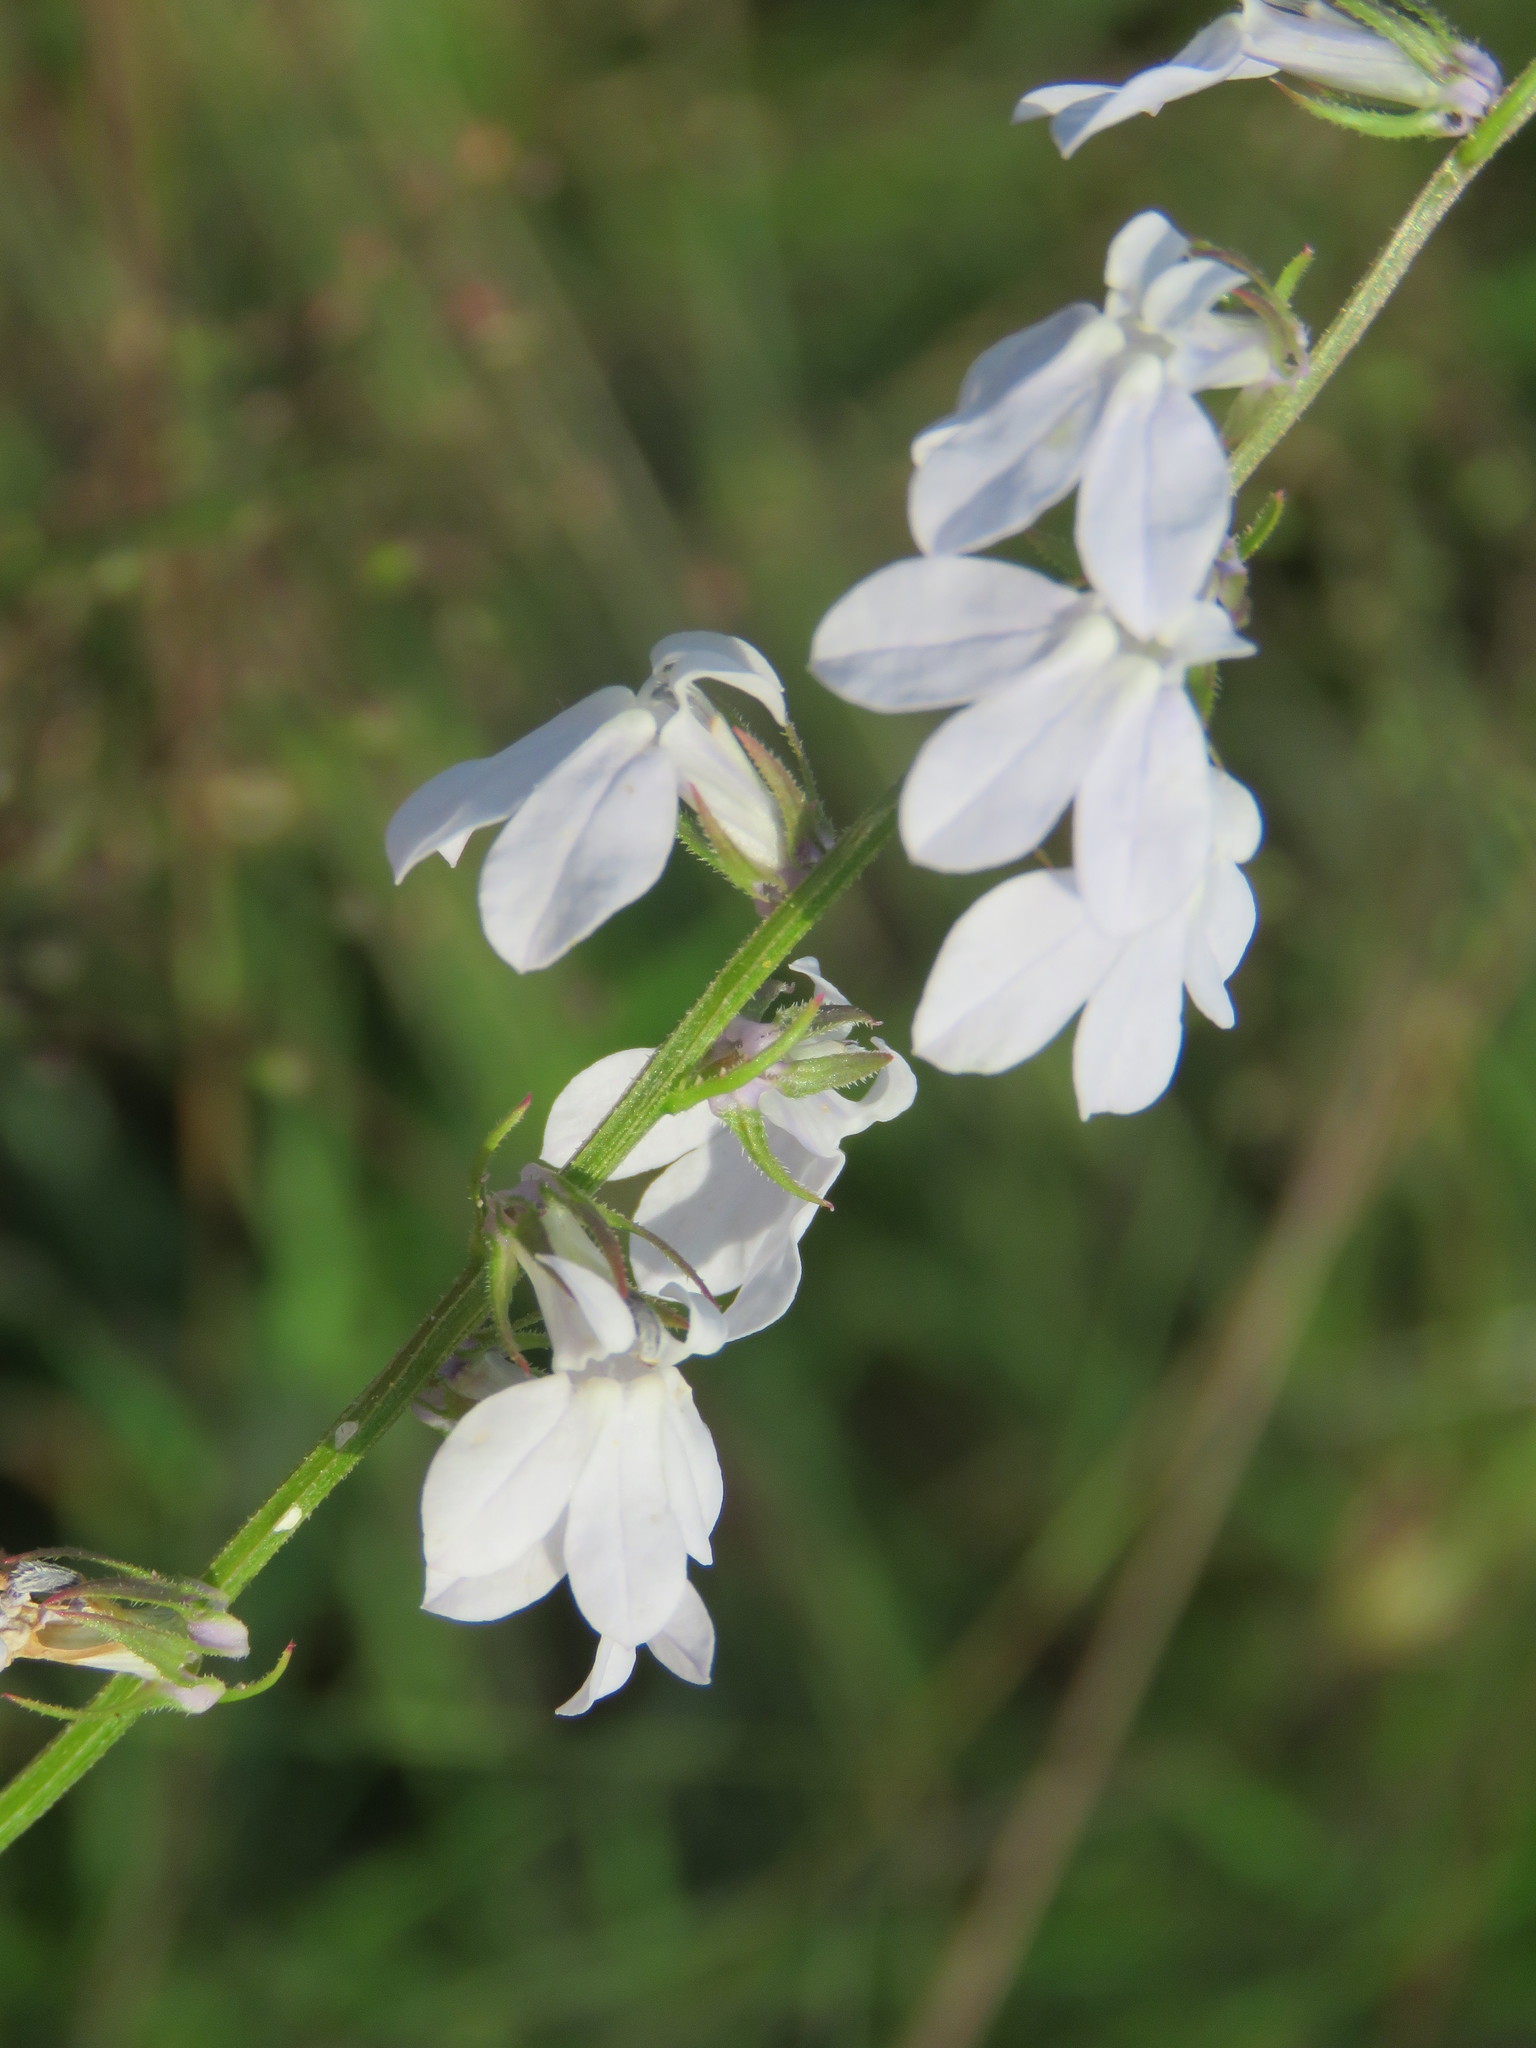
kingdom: Plantae
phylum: Tracheophyta
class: Magnoliopsida
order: Asterales
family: Campanulaceae
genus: Lobelia
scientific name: Lobelia appendiculata
